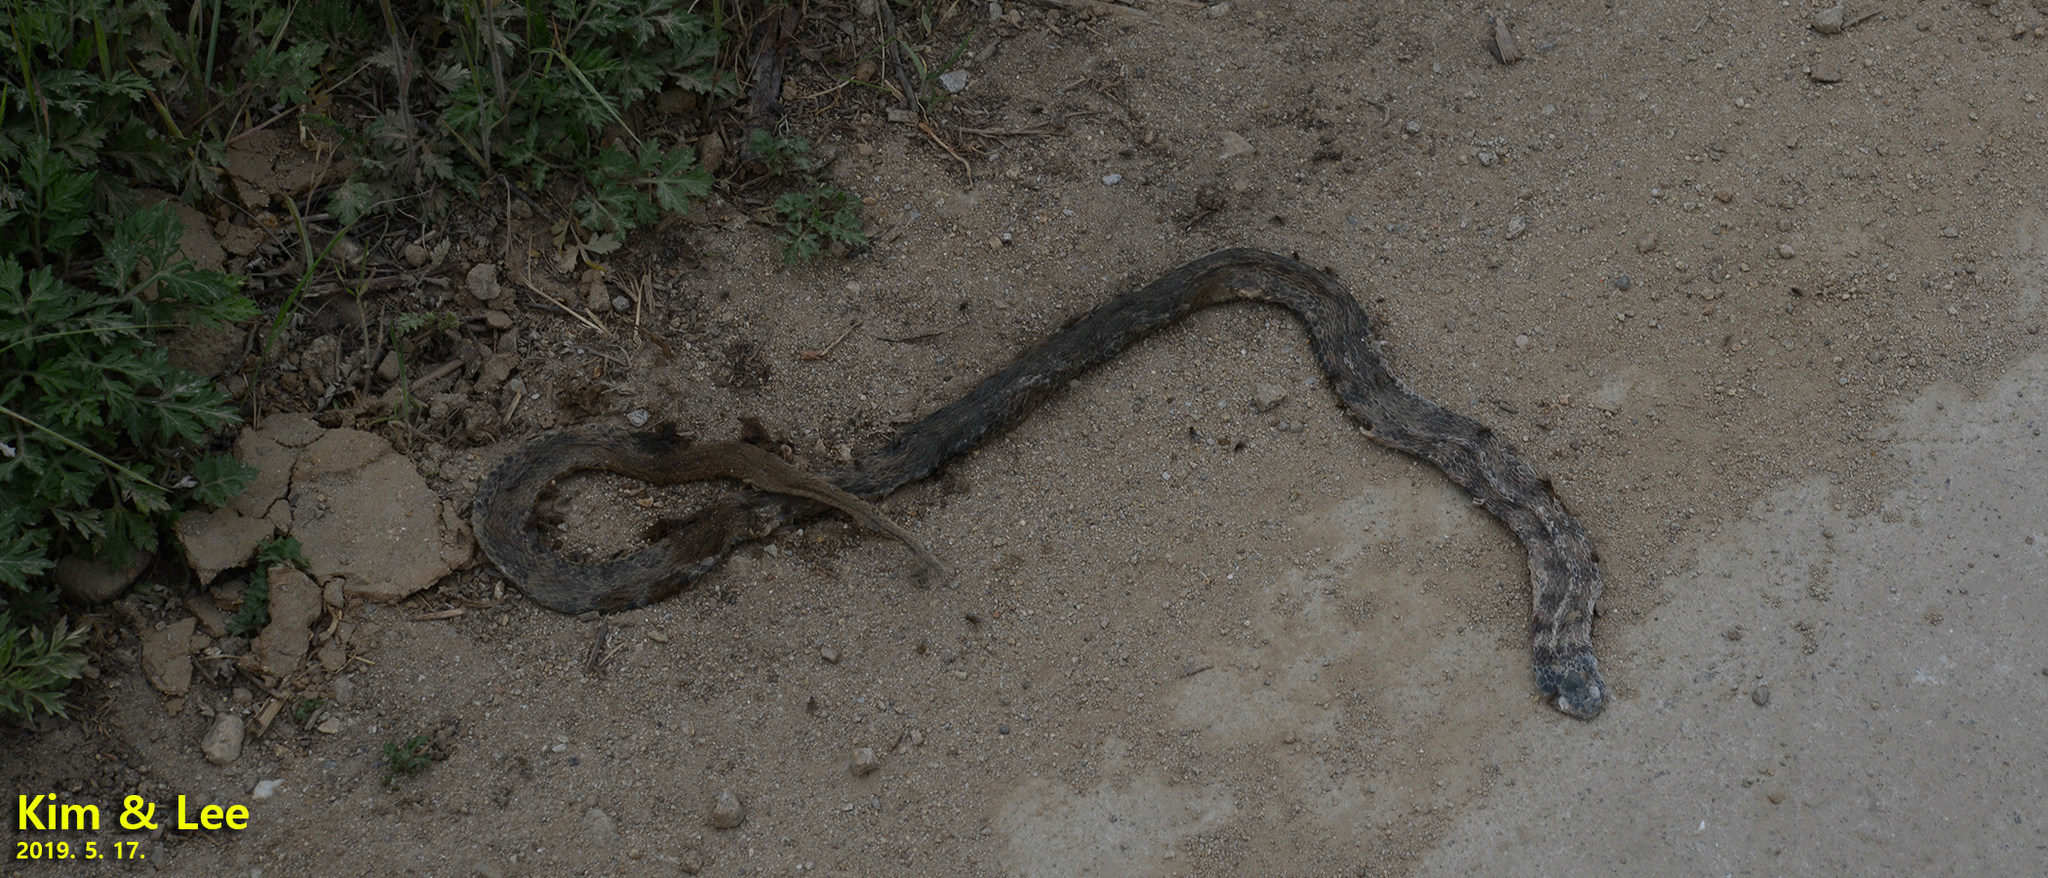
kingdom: Animalia
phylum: Chordata
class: Squamata
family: Colubridae
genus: Rhabdophis
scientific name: Rhabdophis tigrinus
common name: Tiger keelback
